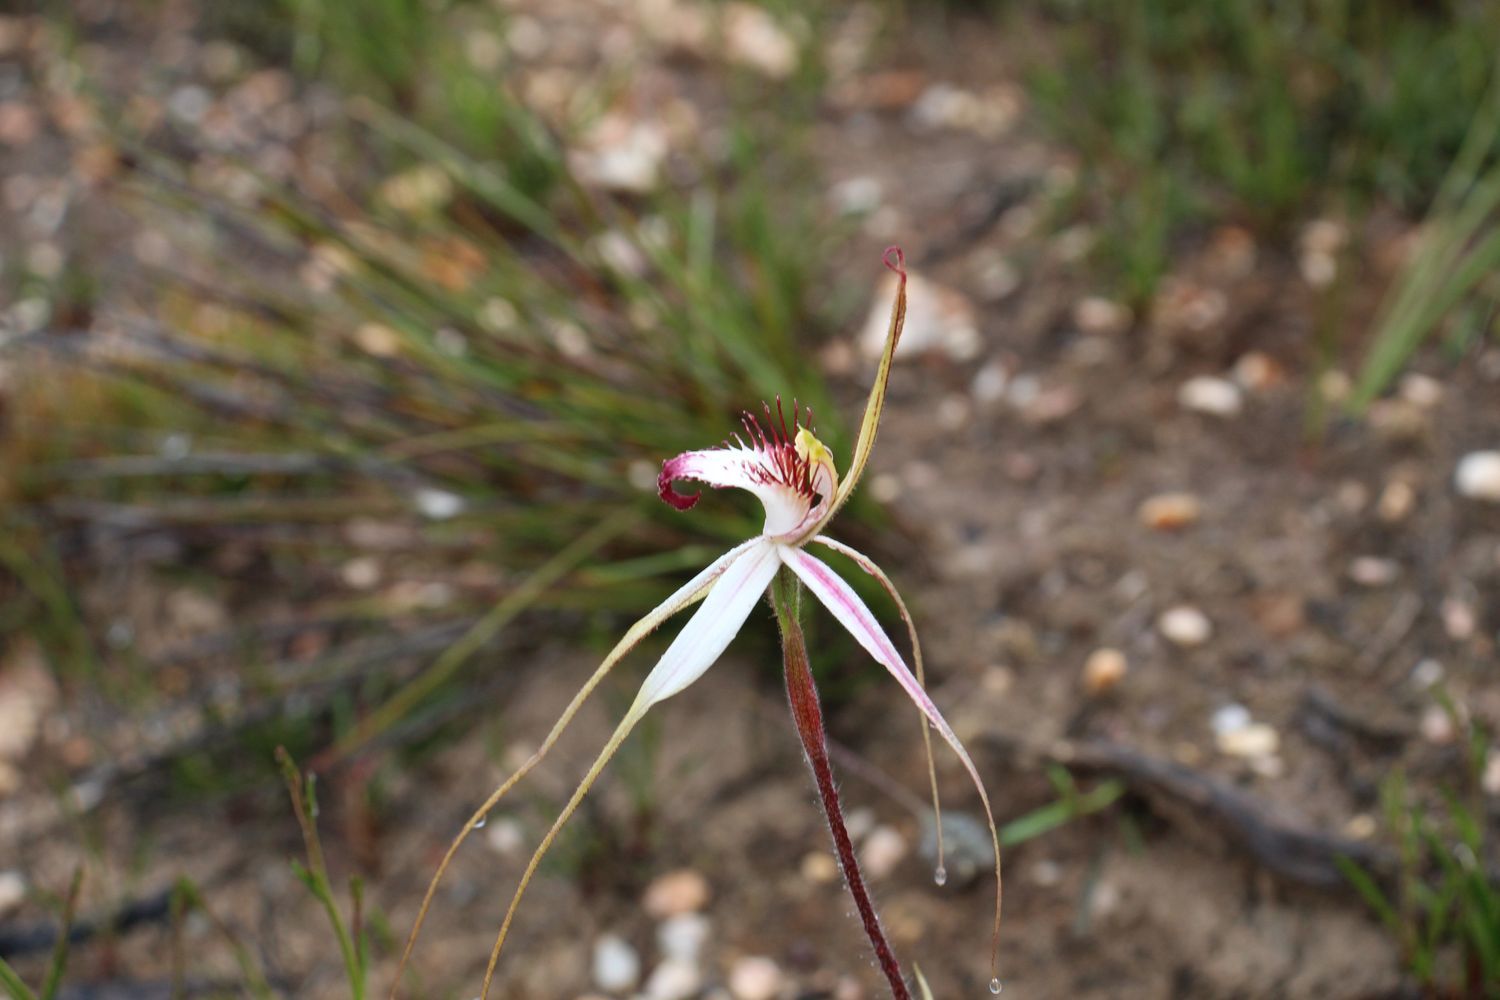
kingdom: Plantae
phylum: Tracheophyta
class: Liliopsida
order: Asparagales
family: Orchidaceae
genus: Caladenia
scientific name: Caladenia cala
